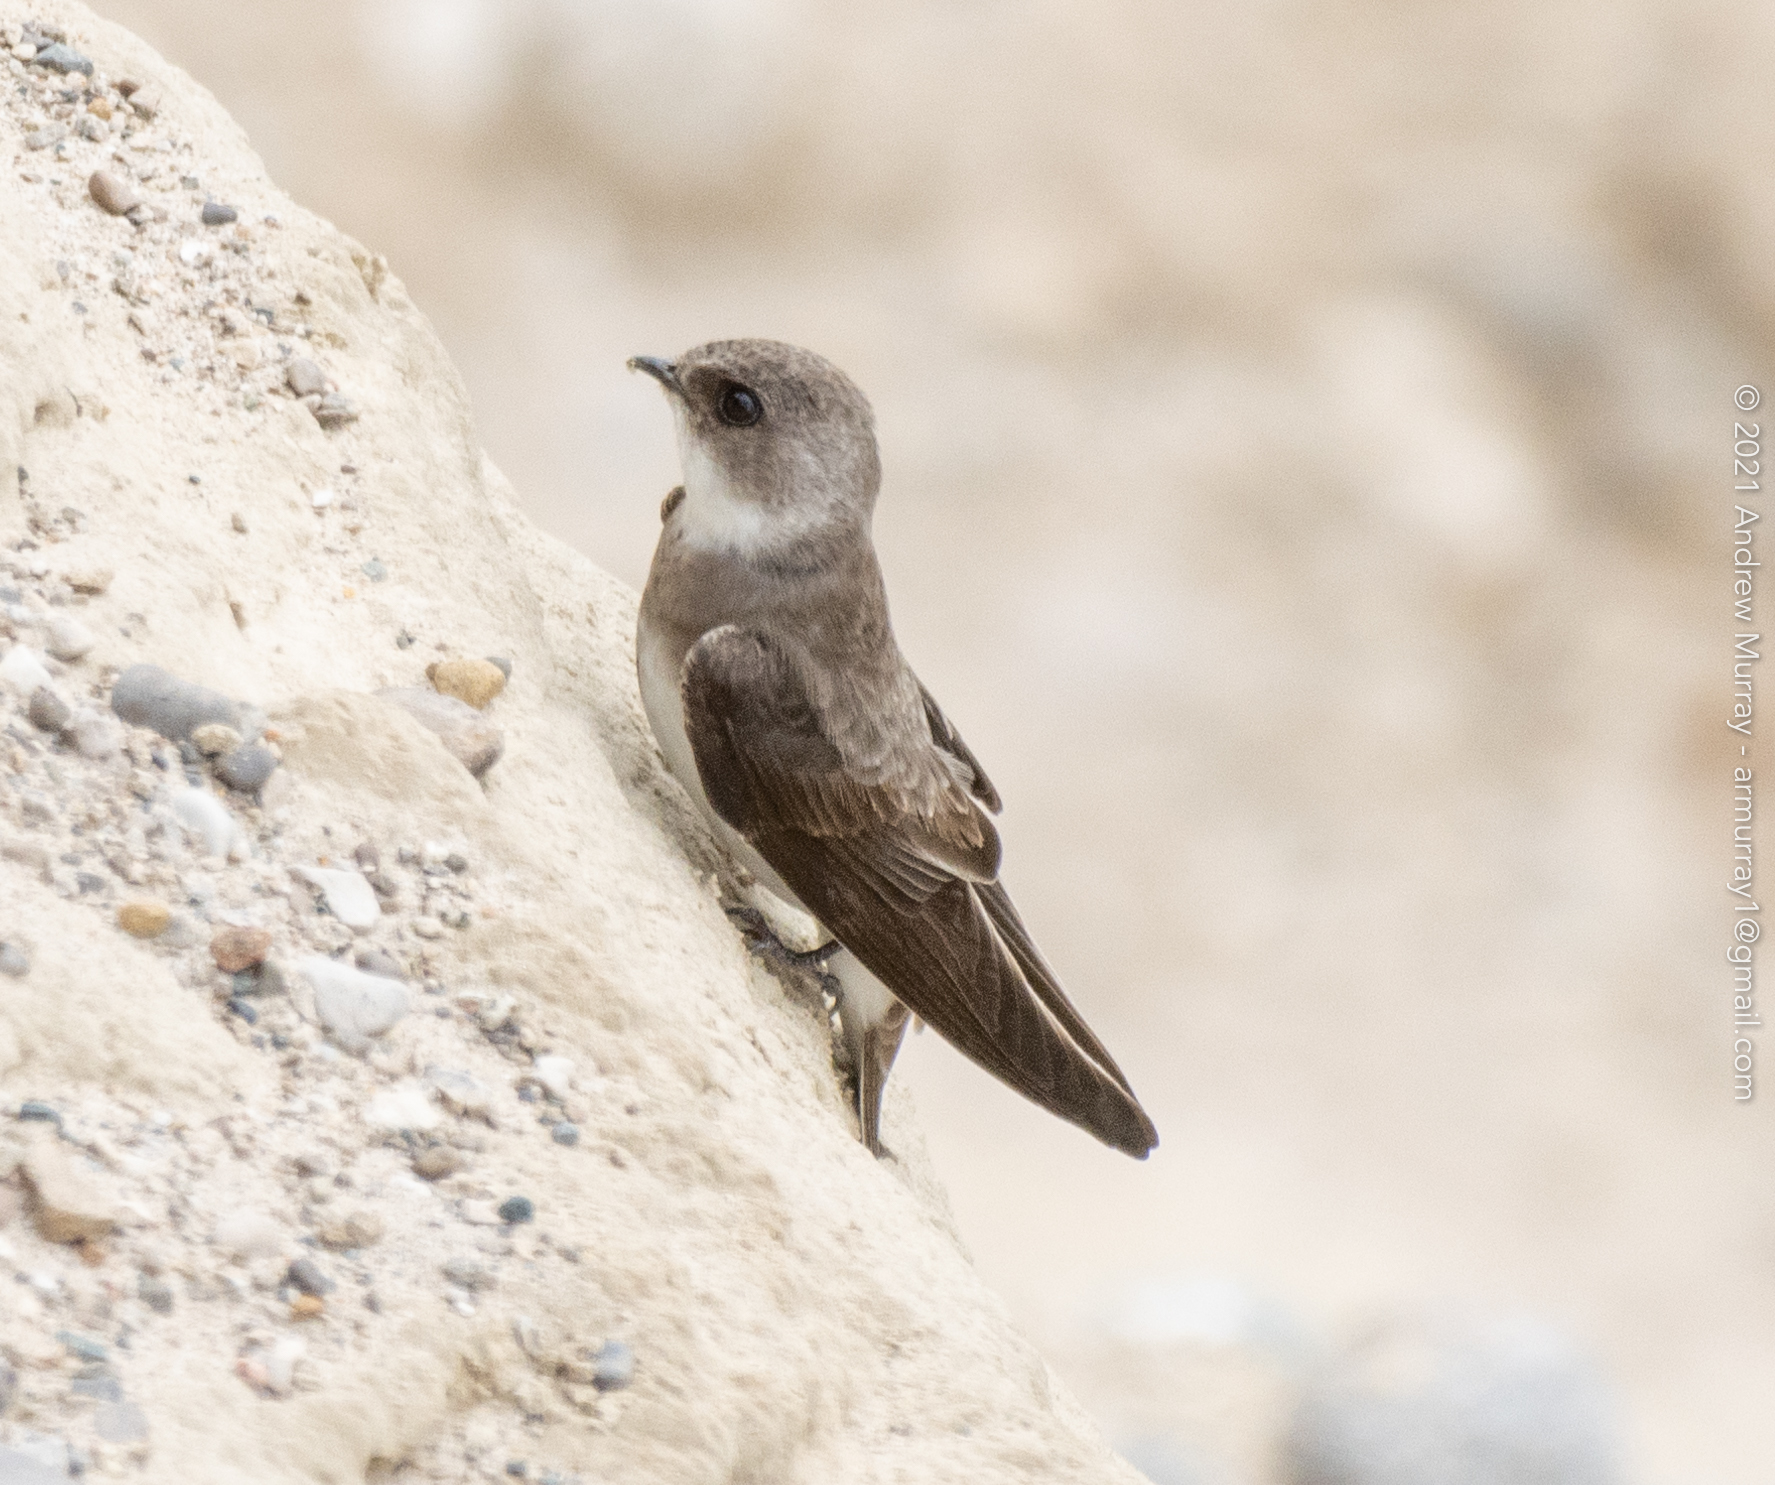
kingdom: Animalia
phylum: Chordata
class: Aves
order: Passeriformes
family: Hirundinidae
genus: Riparia
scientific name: Riparia riparia
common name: Sand martin
